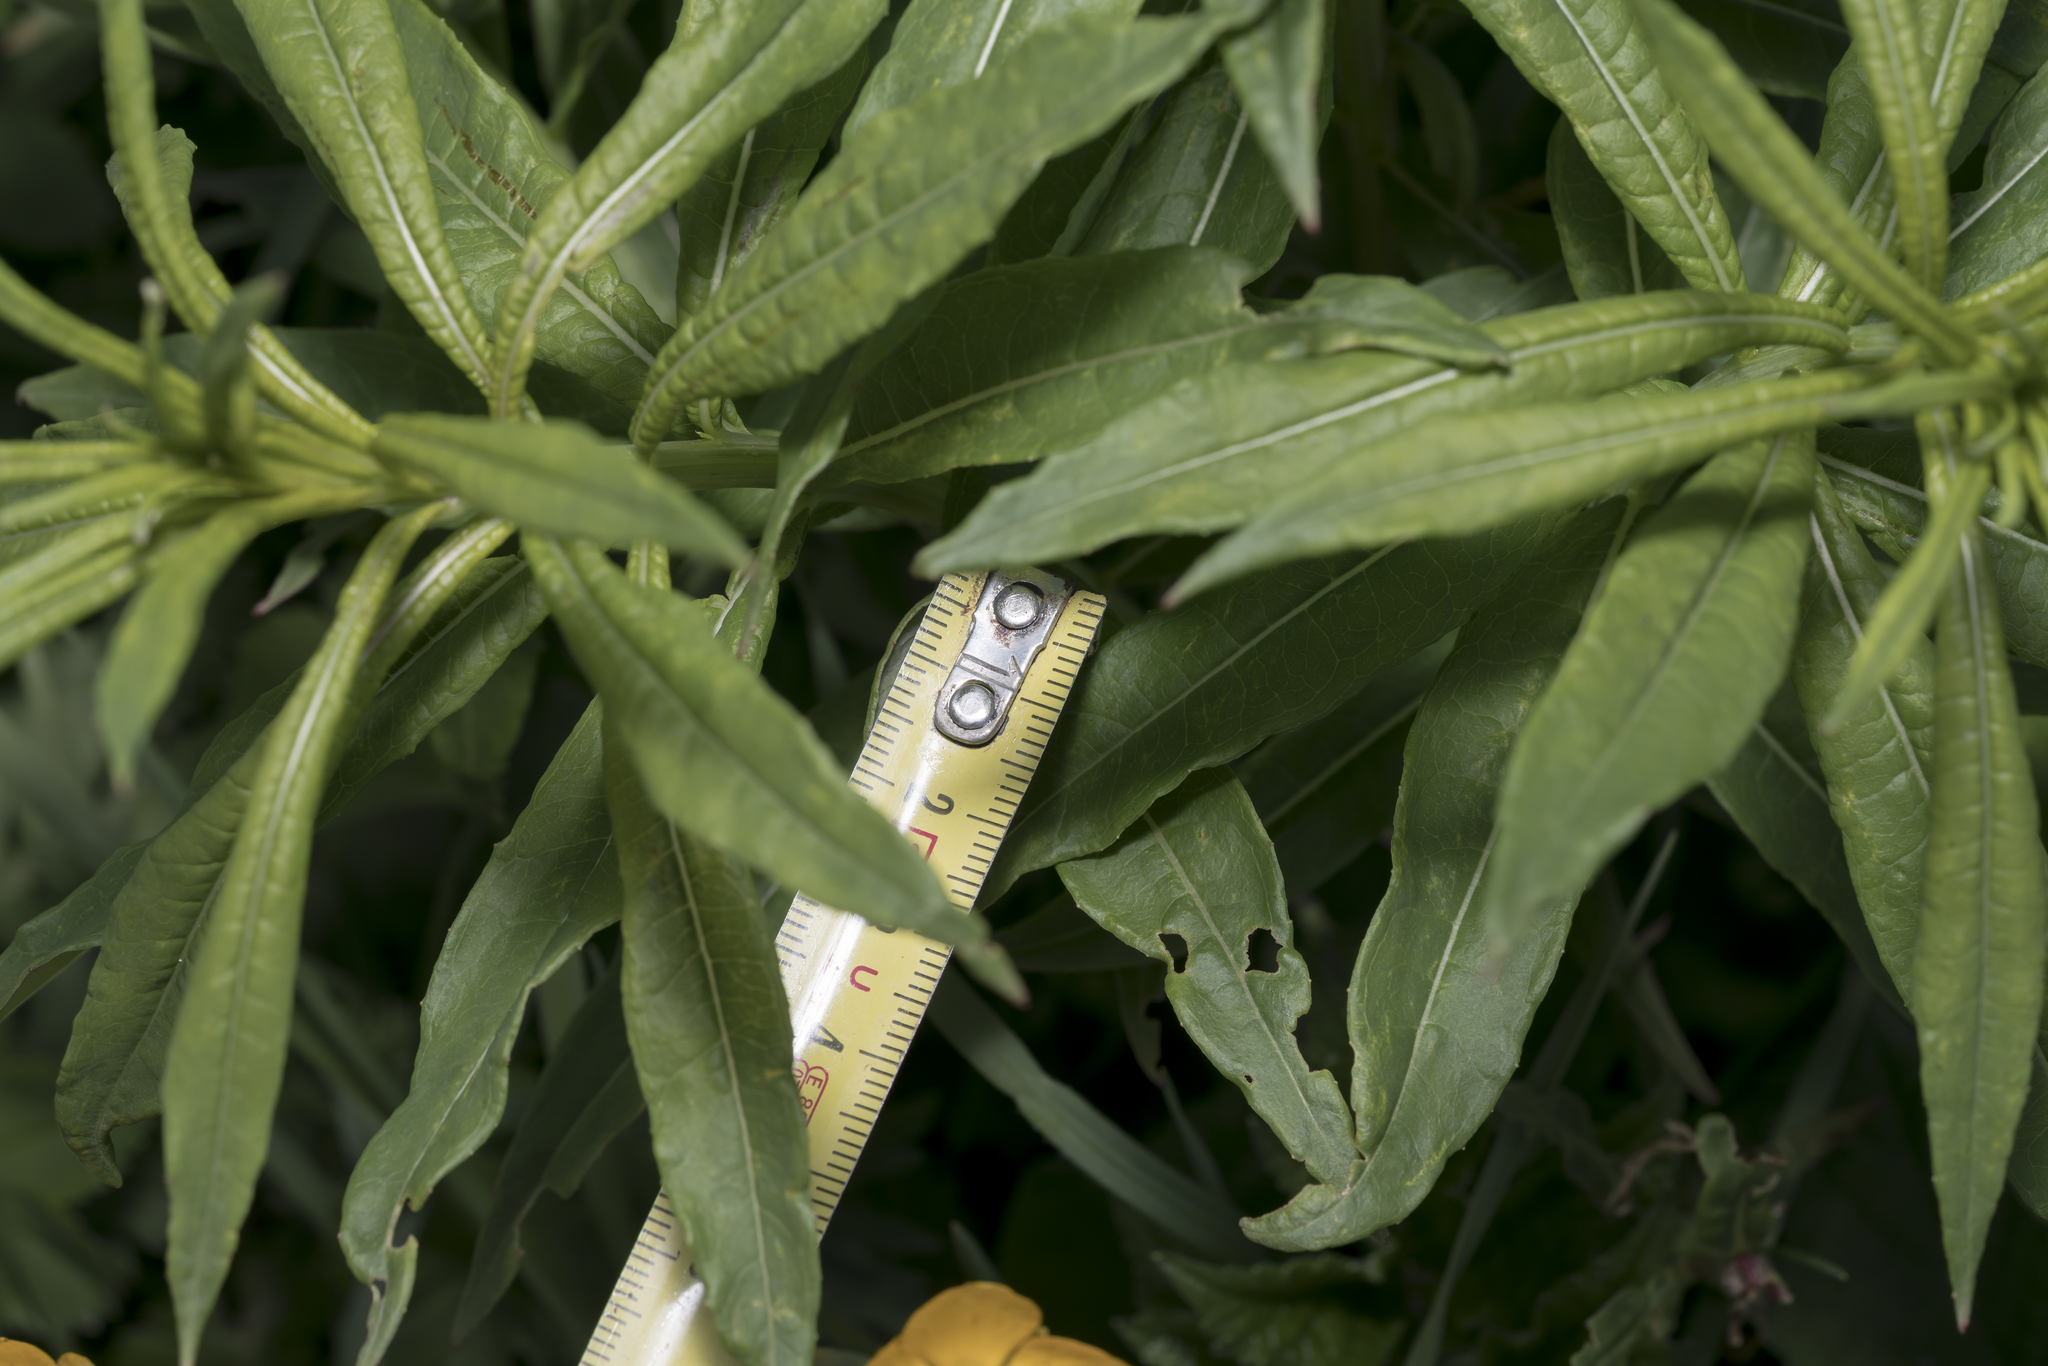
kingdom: Plantae
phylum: Tracheophyta
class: Magnoliopsida
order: Myrtales
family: Onagraceae
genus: Chamaenerion
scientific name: Chamaenerion angustifolium
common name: Fireweed
